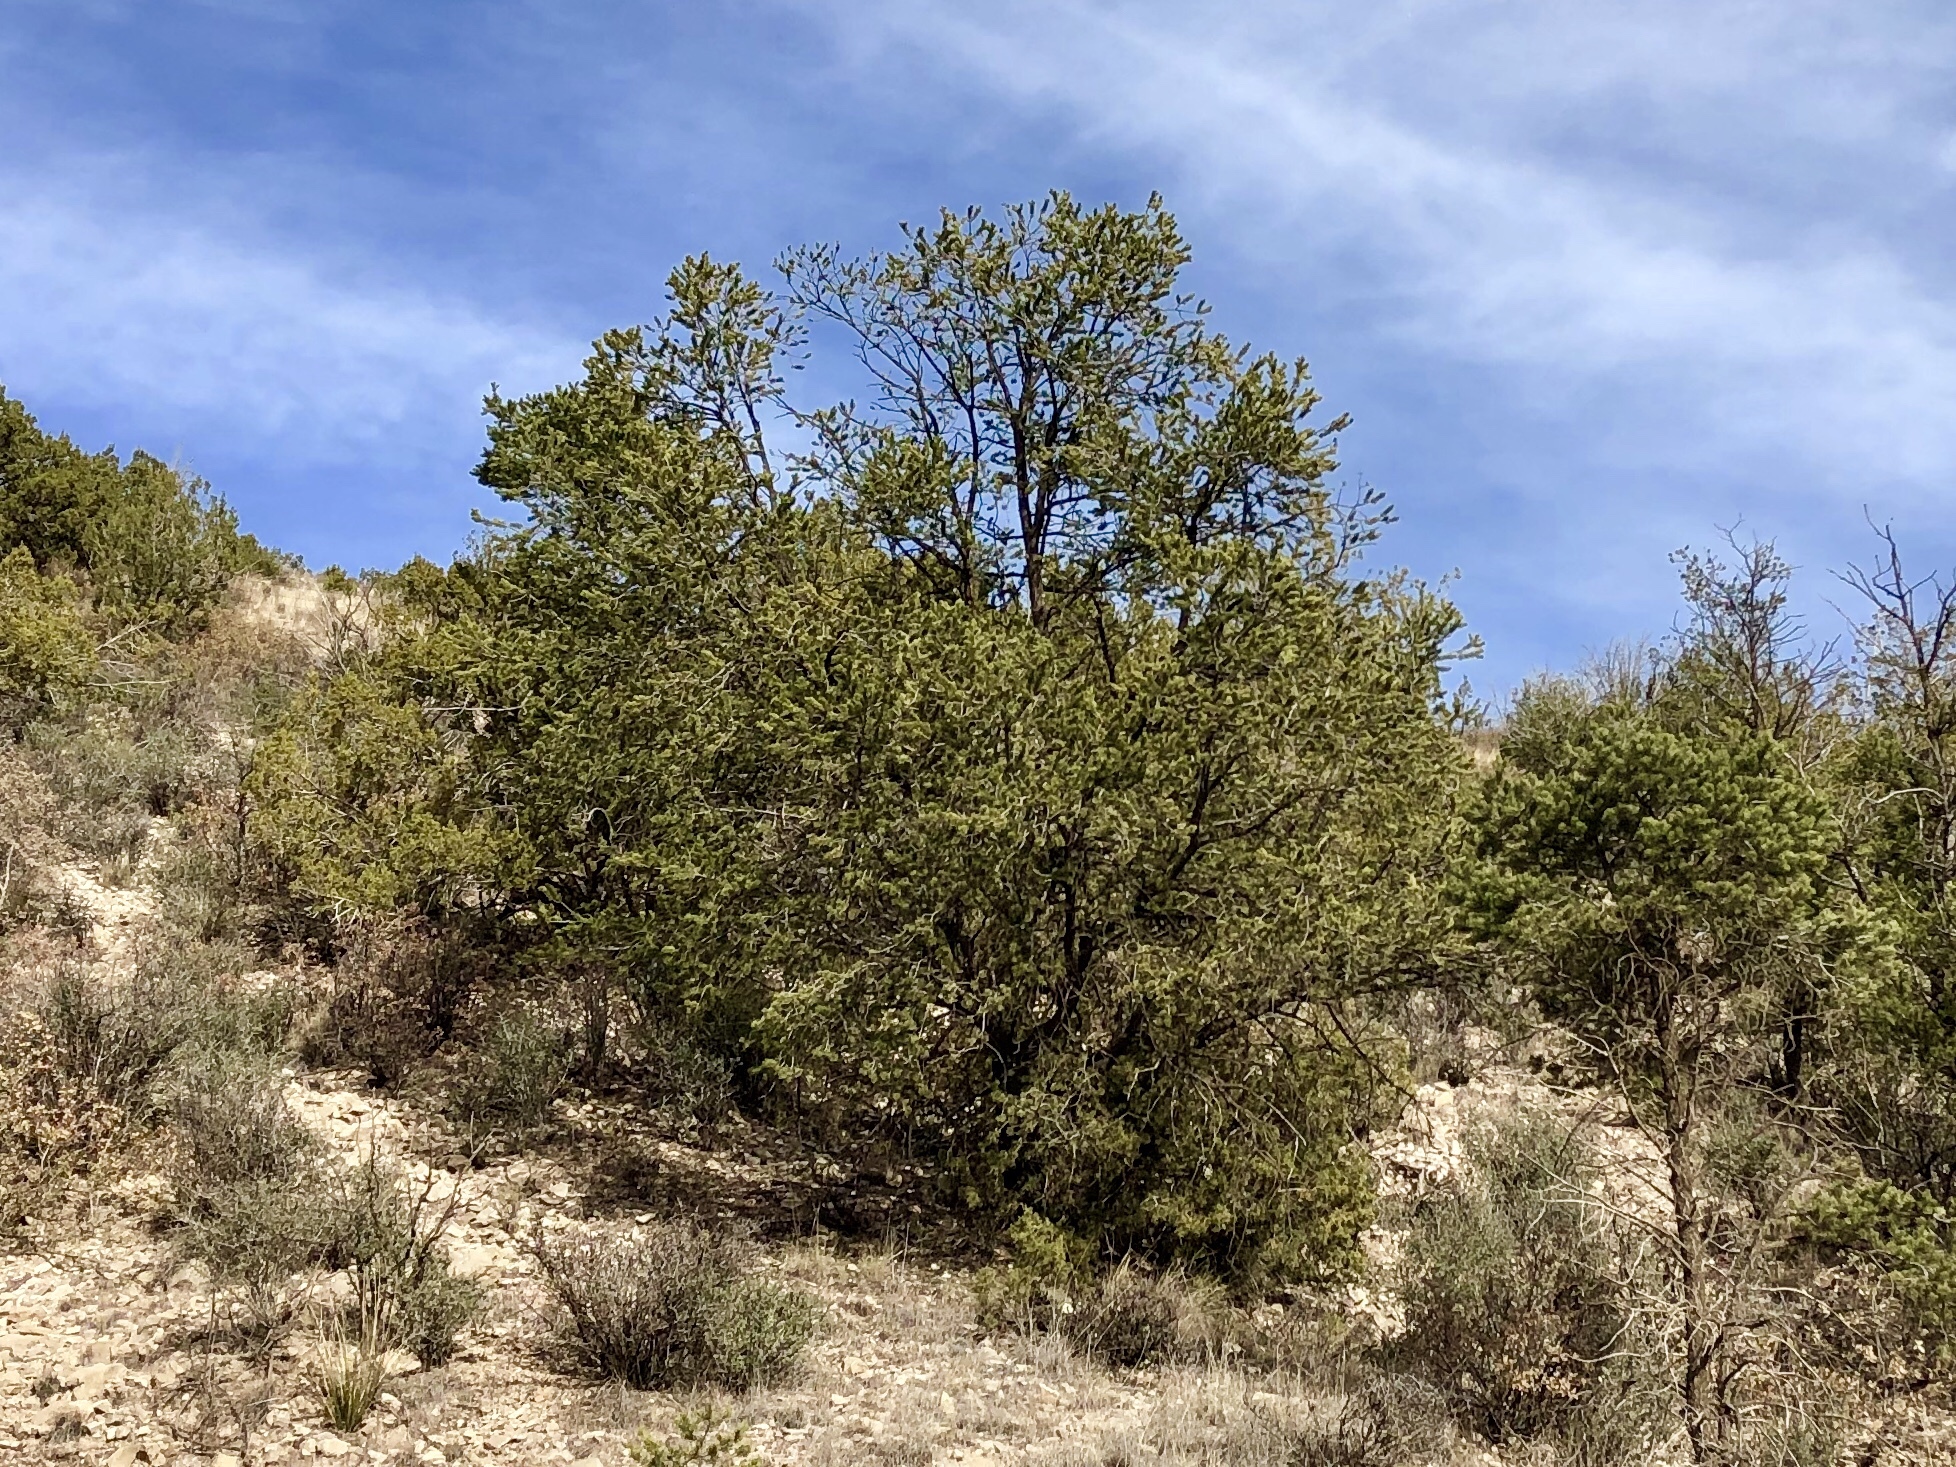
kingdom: Plantae
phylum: Tracheophyta
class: Pinopsida
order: Pinales
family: Pinaceae
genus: Pinus
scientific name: Pinus edulis
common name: Colorado pinyon
